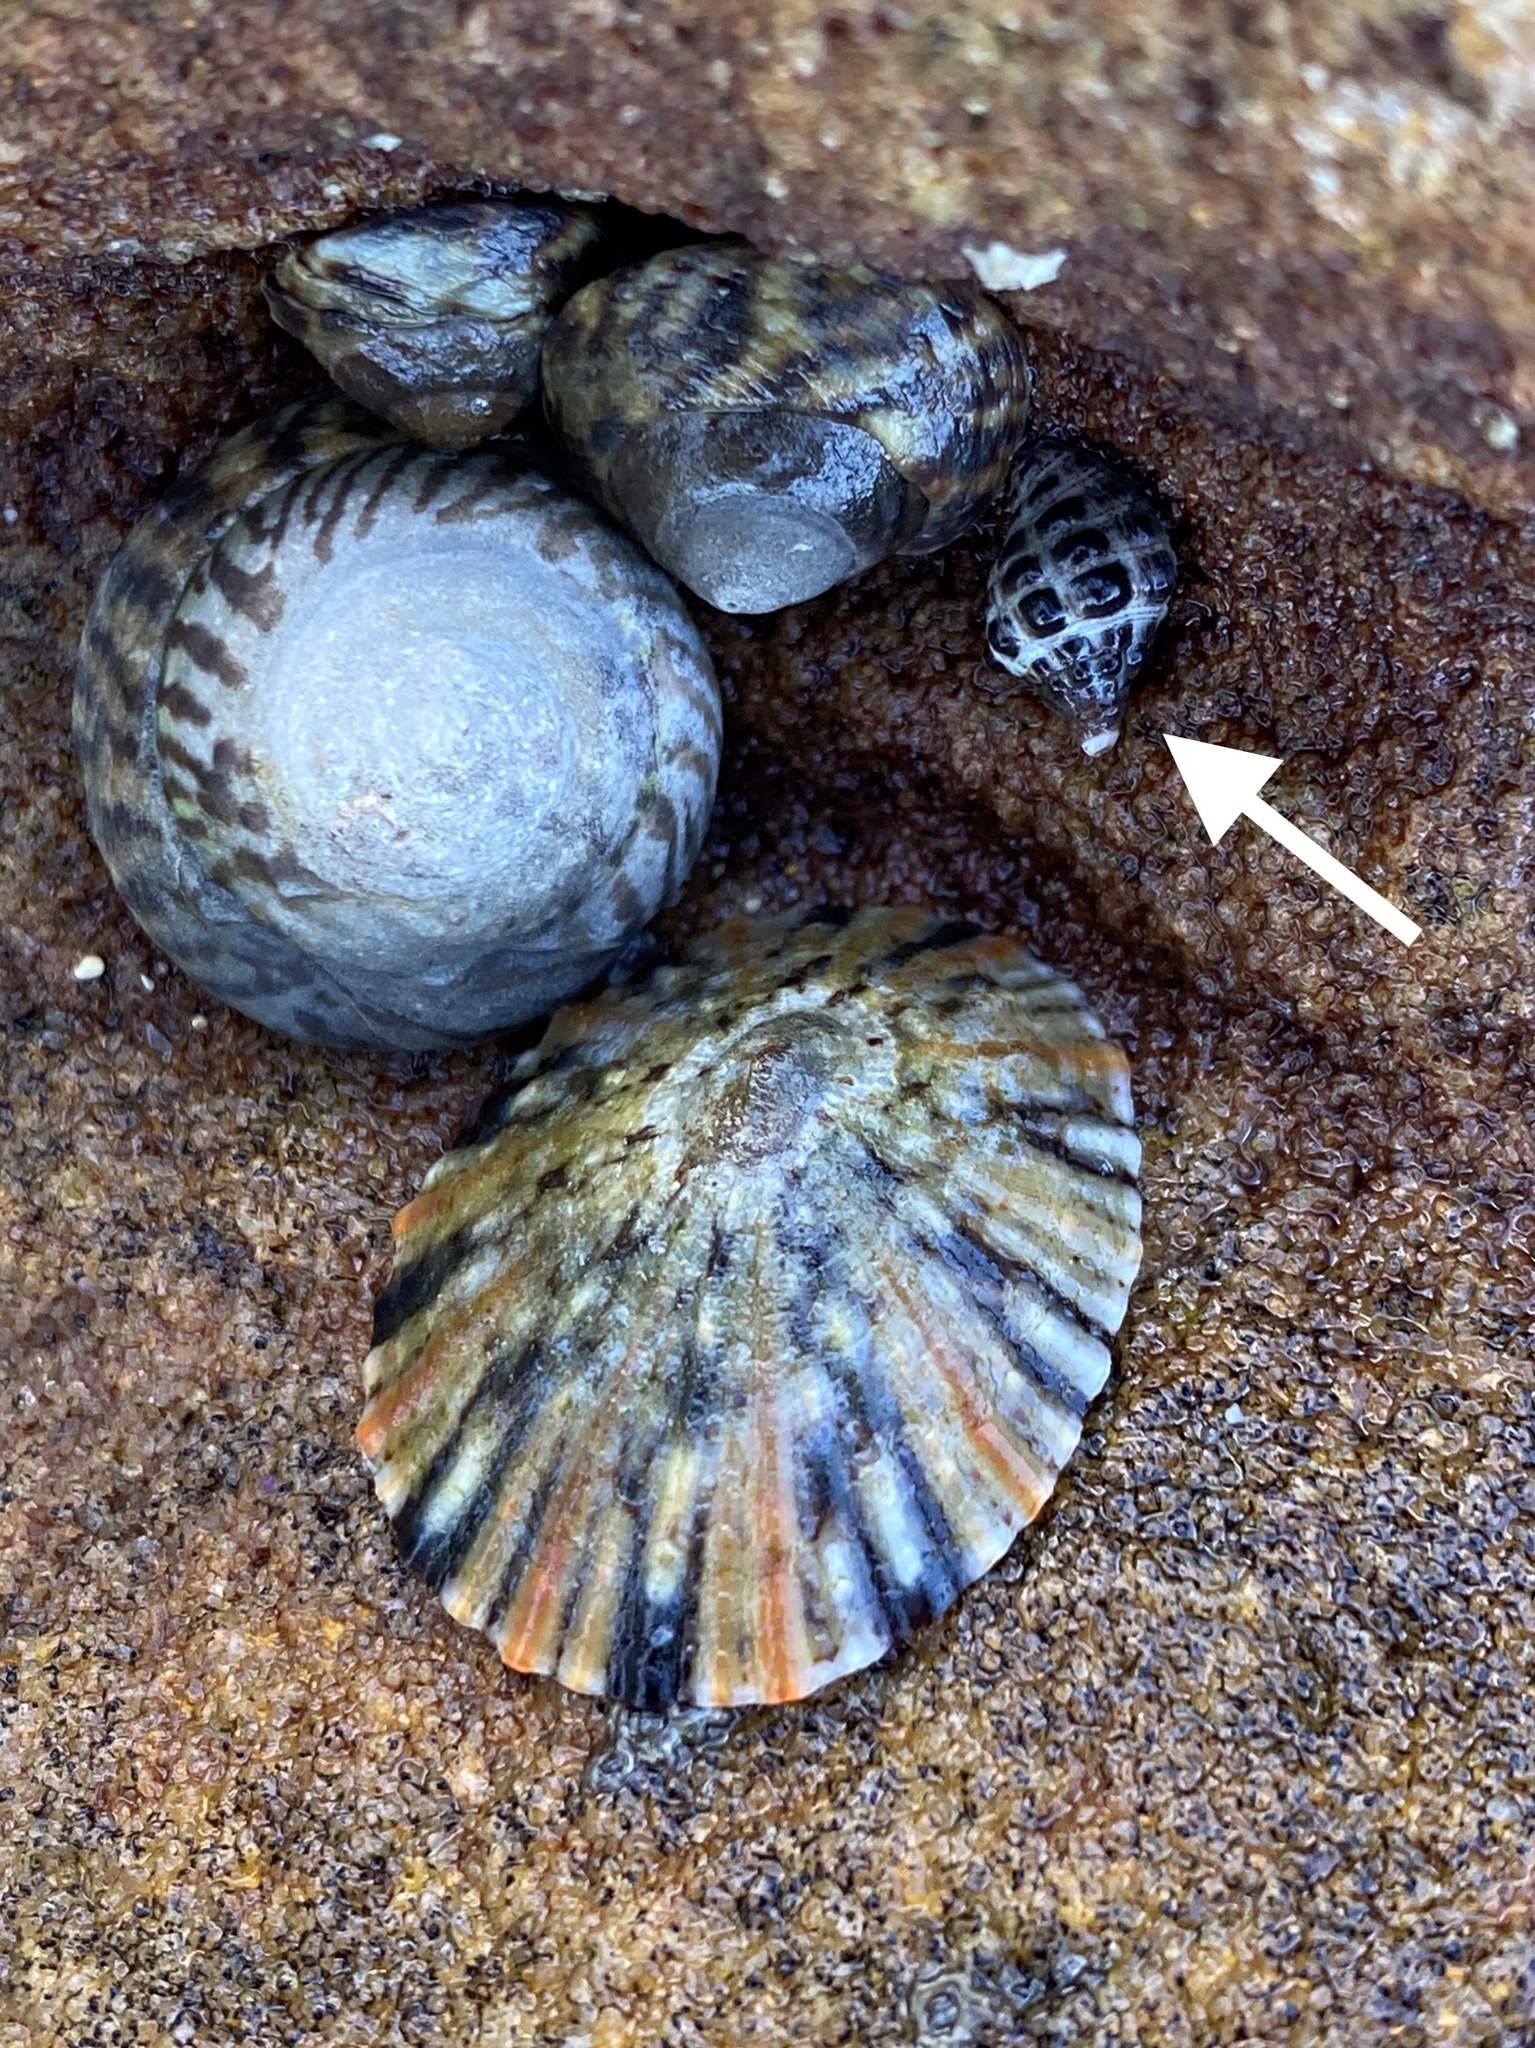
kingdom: Animalia
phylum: Mollusca
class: Gastropoda
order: Neogastropoda
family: Muricidae
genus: Tenguella
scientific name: Tenguella marginalba
